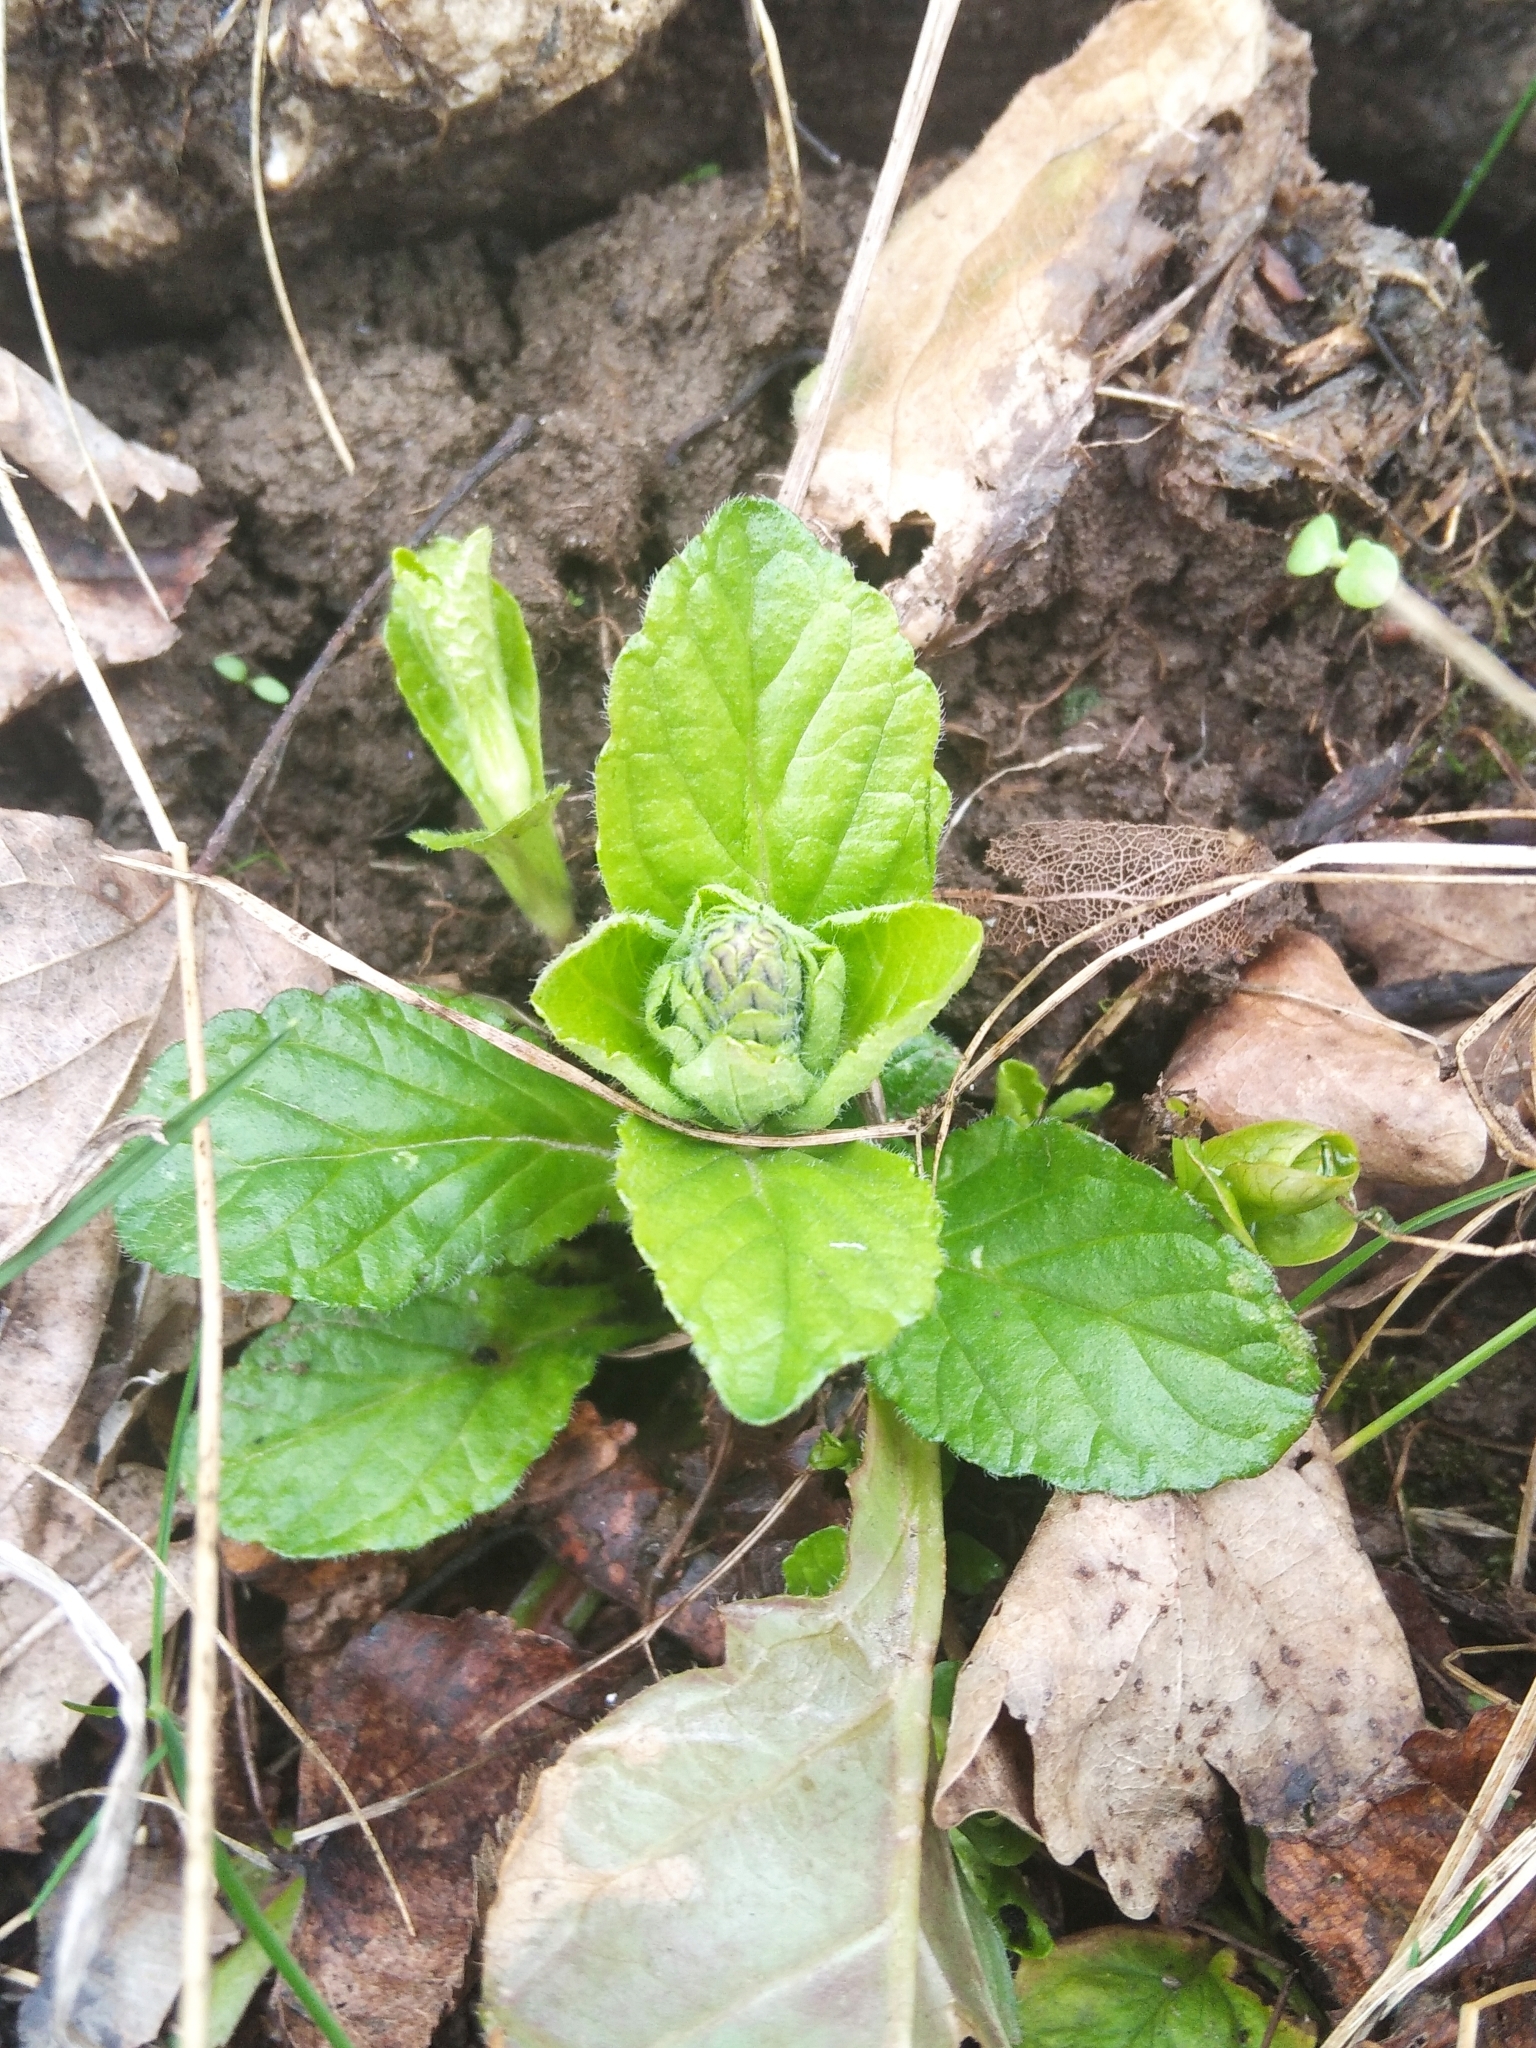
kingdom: Plantae
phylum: Tracheophyta
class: Magnoliopsida
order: Lamiales
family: Lamiaceae
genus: Ajuga
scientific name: Ajuga reptans
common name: Bugle
